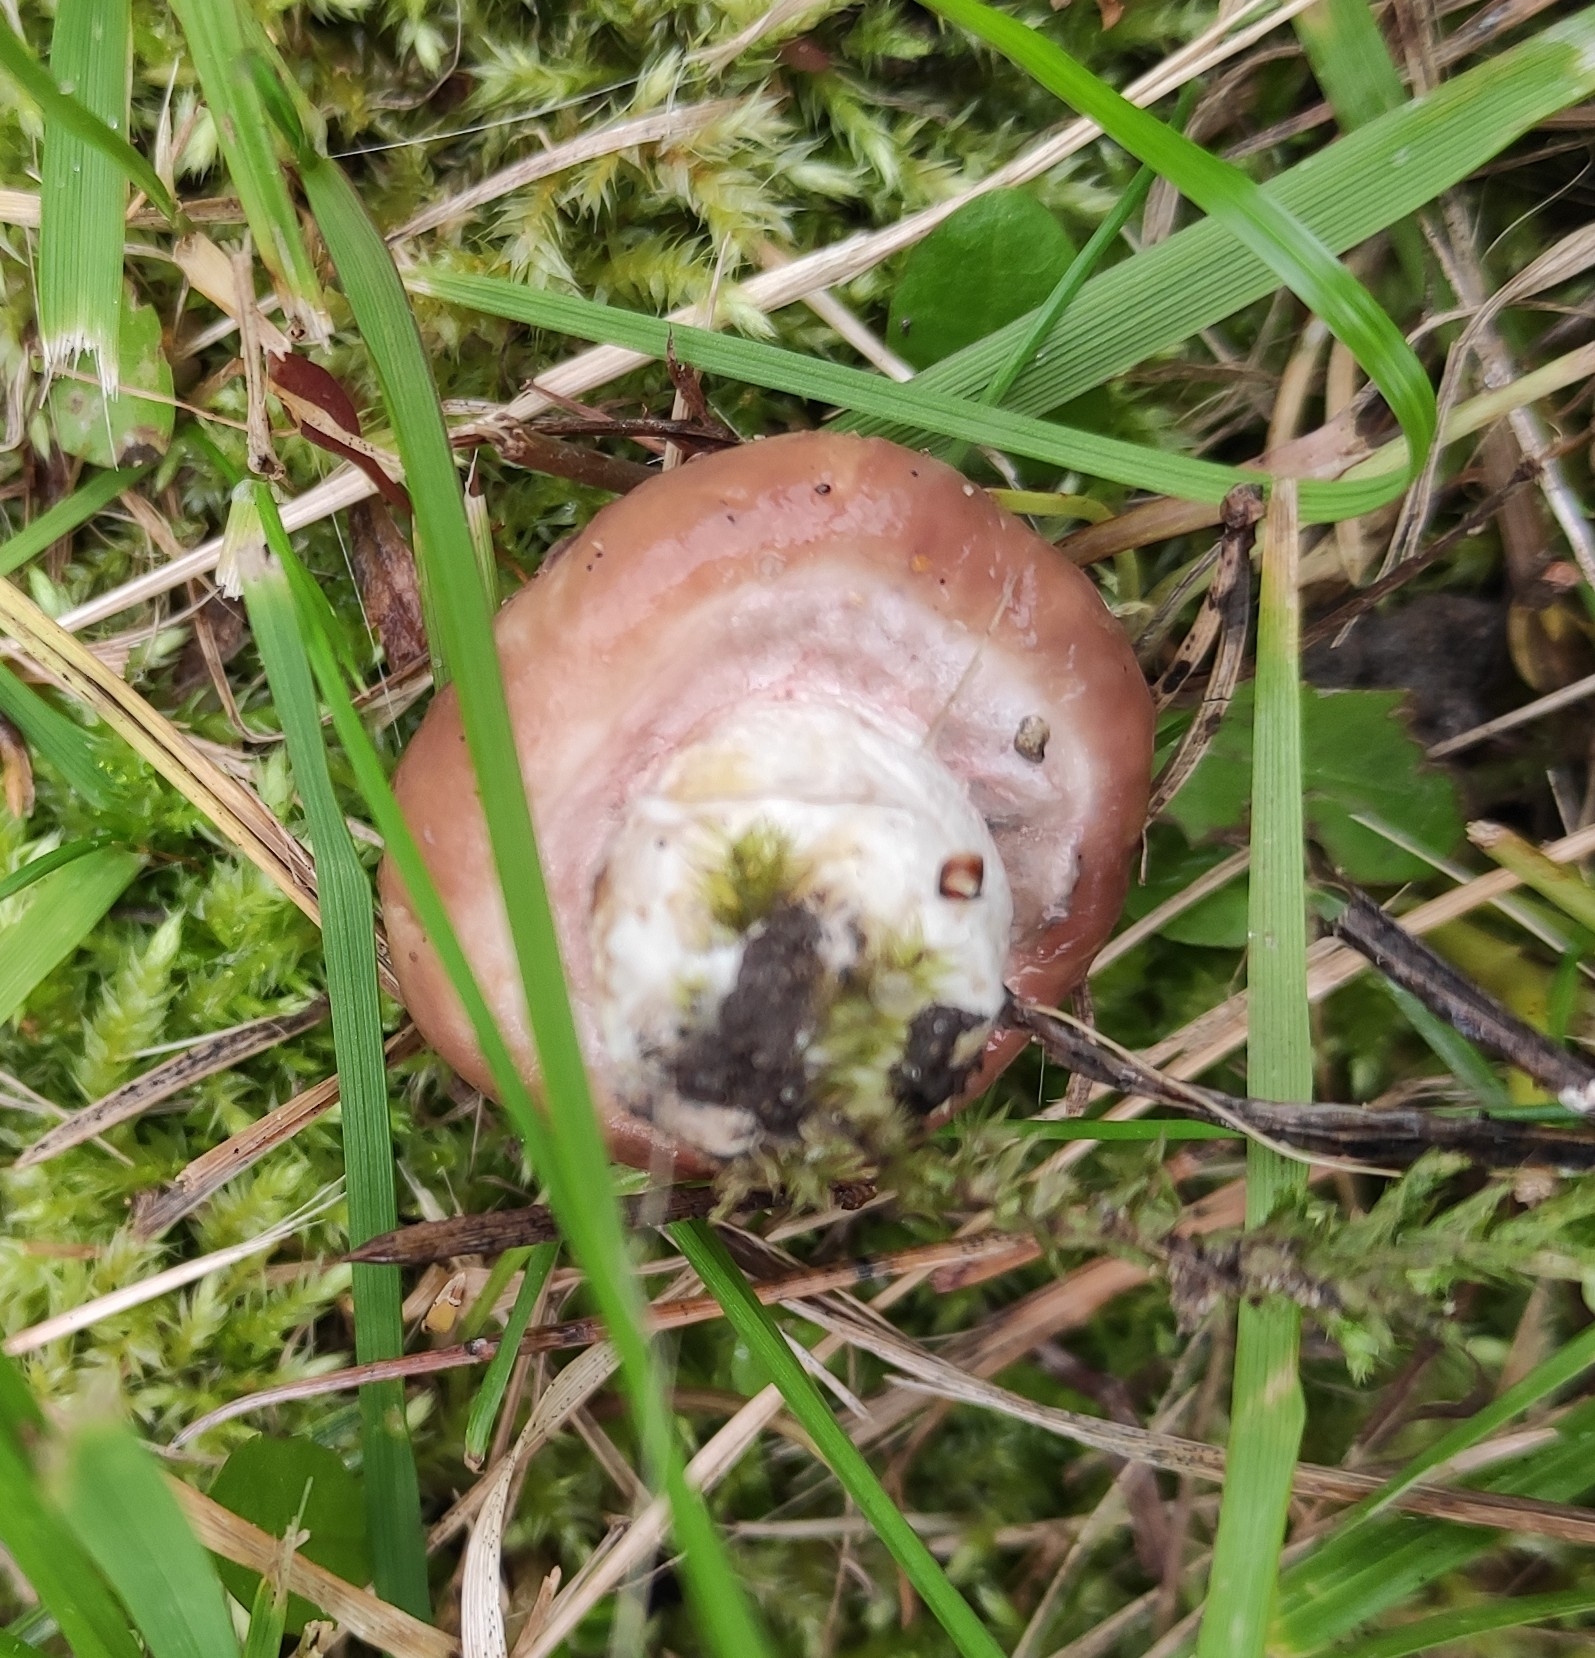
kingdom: Fungi
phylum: Basidiomycota
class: Agaricomycetes
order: Boletales
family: Suillaceae
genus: Suillus
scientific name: Suillus luteus
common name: Slippery jack
